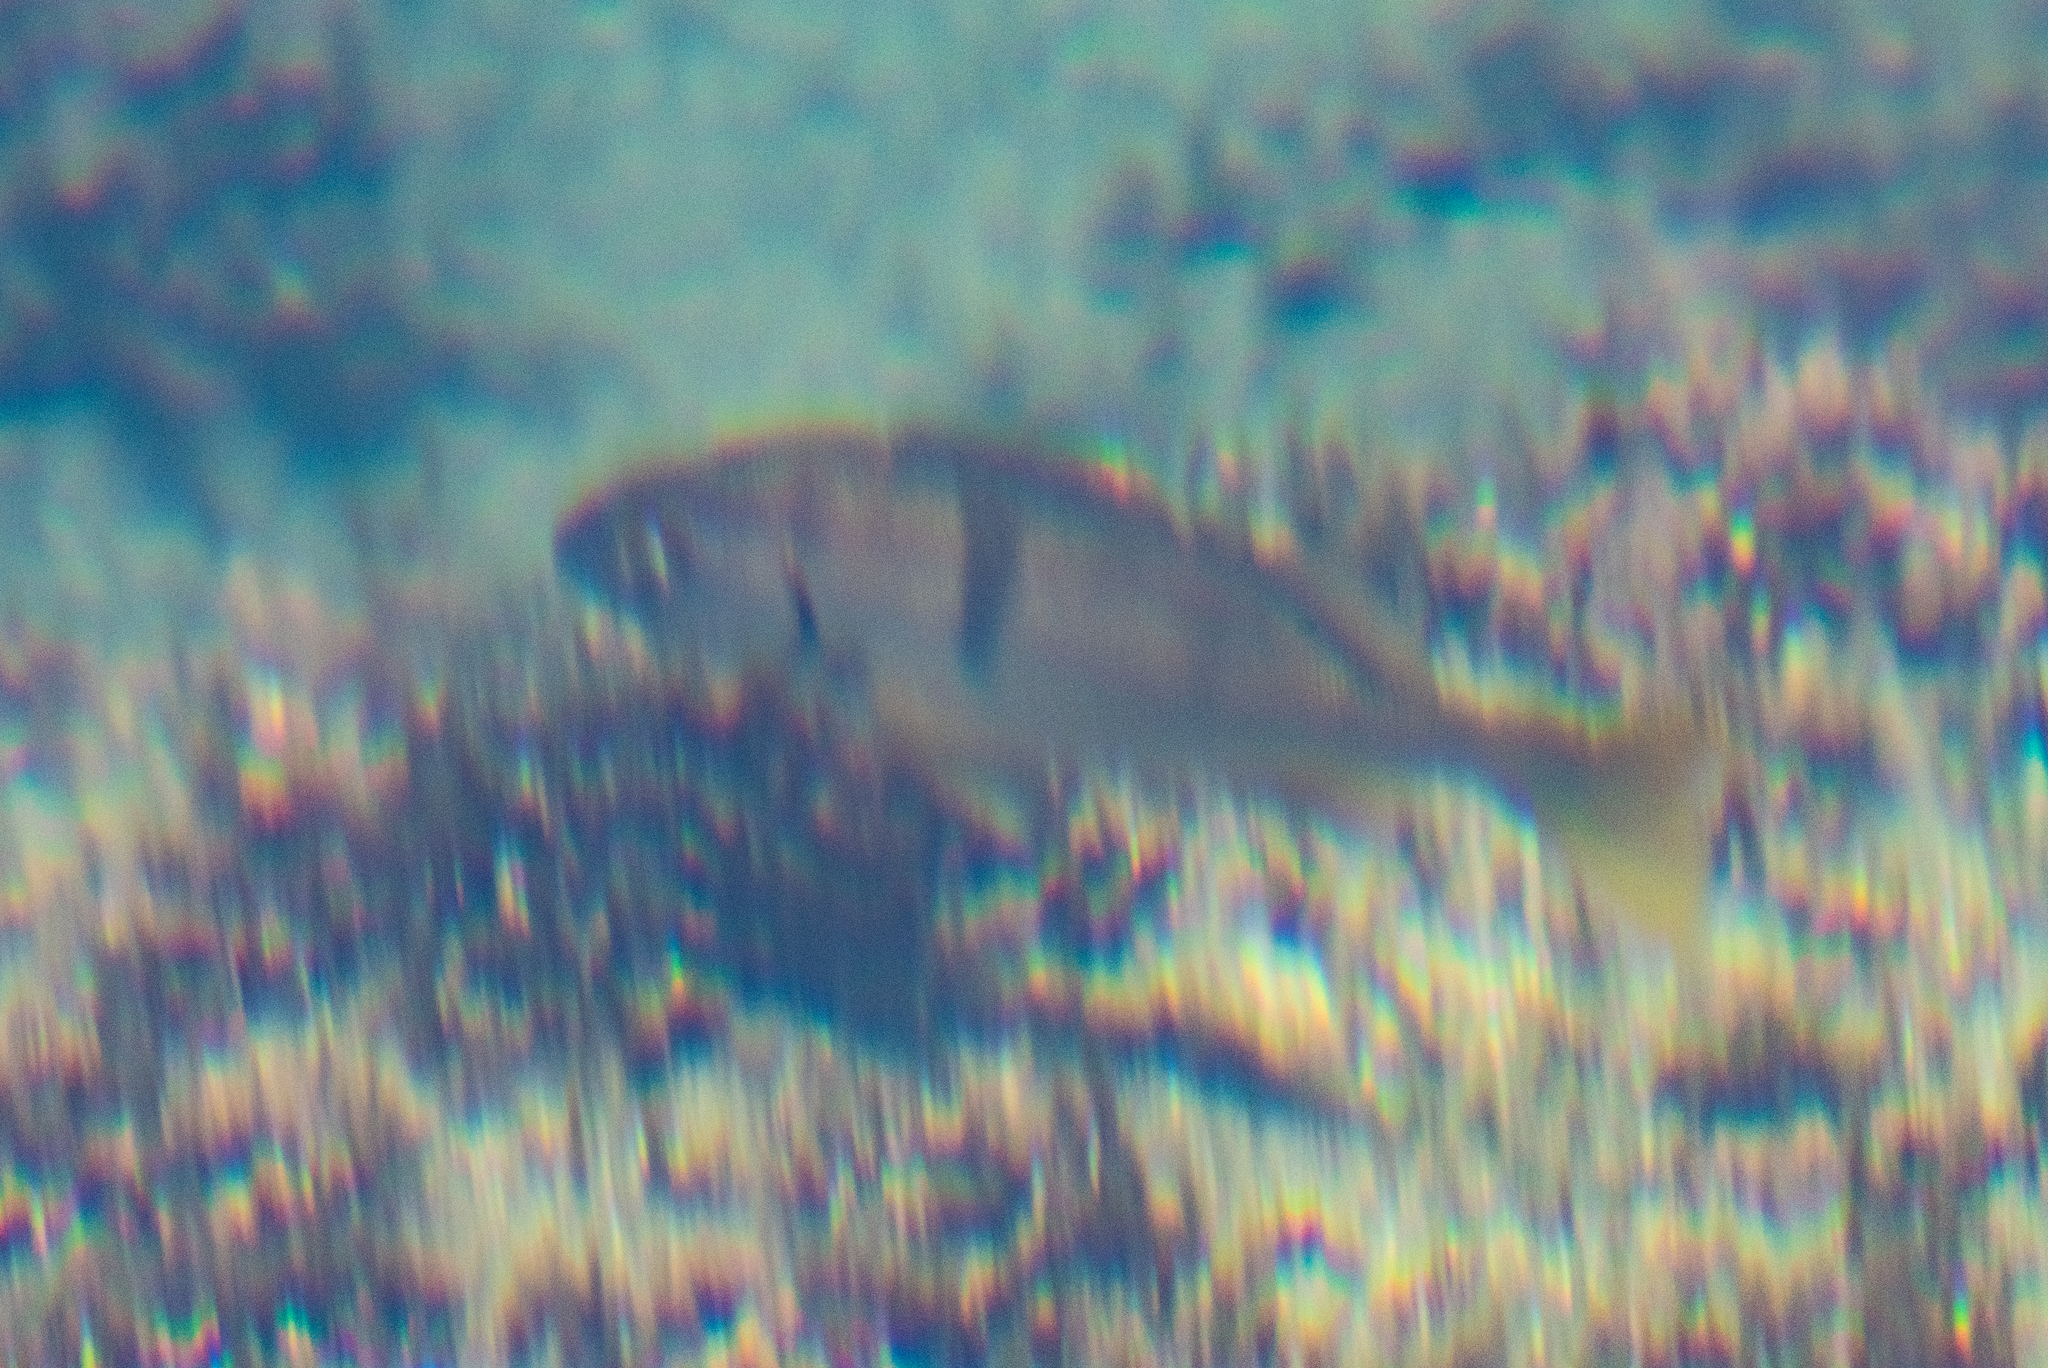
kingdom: Animalia
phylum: Chordata
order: Perciformes
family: Haemulidae
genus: Anisotremus
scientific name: Anisotremus davidsonii
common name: Grunt
